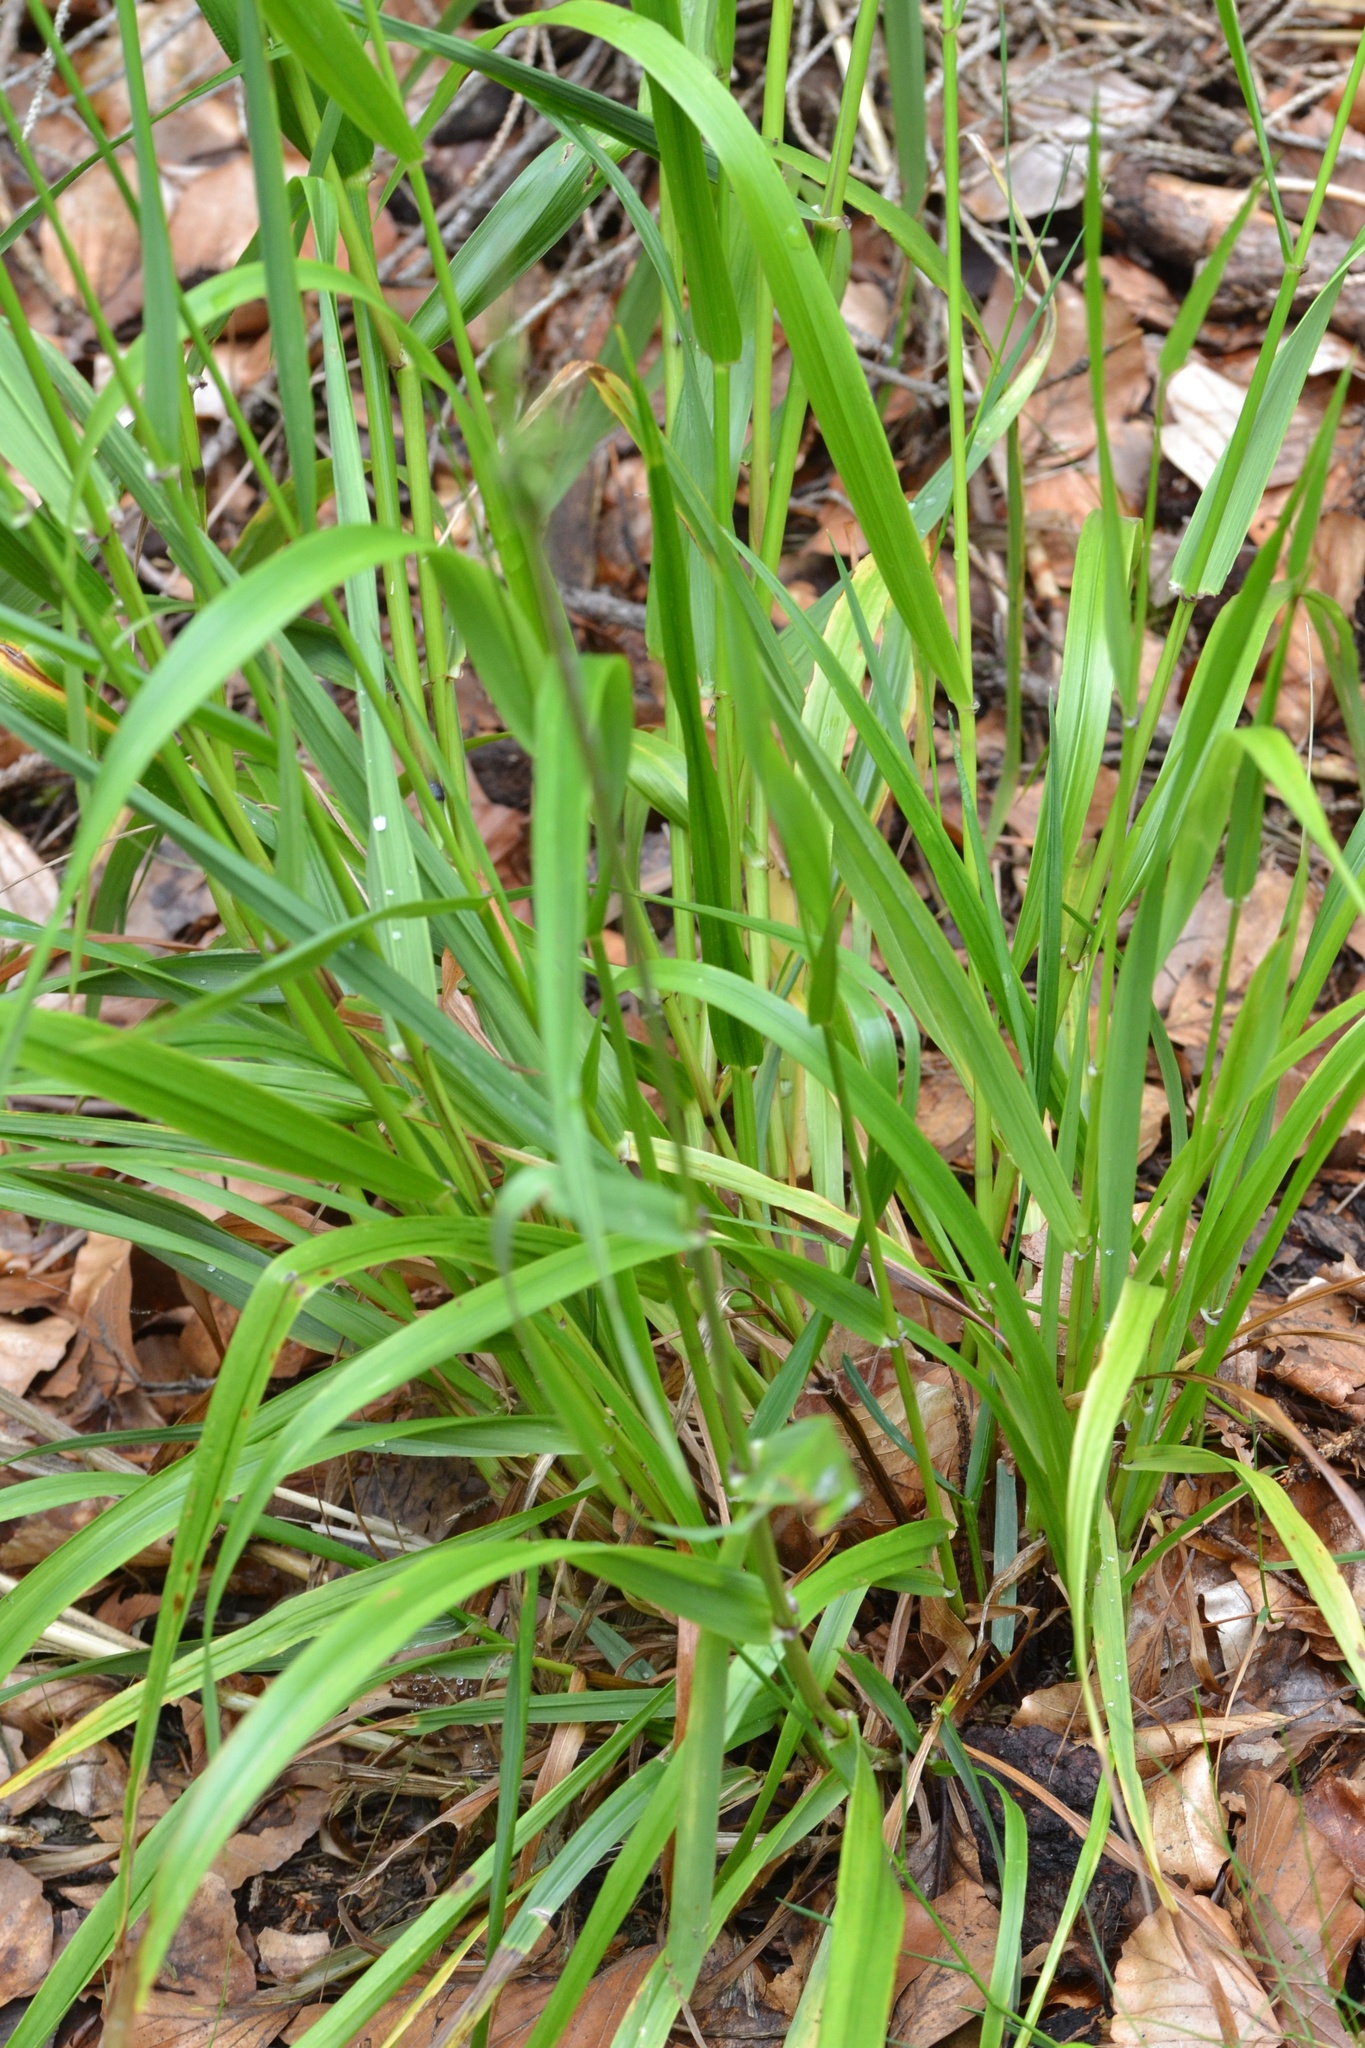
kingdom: Plantae
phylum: Tracheophyta
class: Liliopsida
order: Poales
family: Poaceae
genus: Lolium
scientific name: Lolium giganteum
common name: Giant fescue
